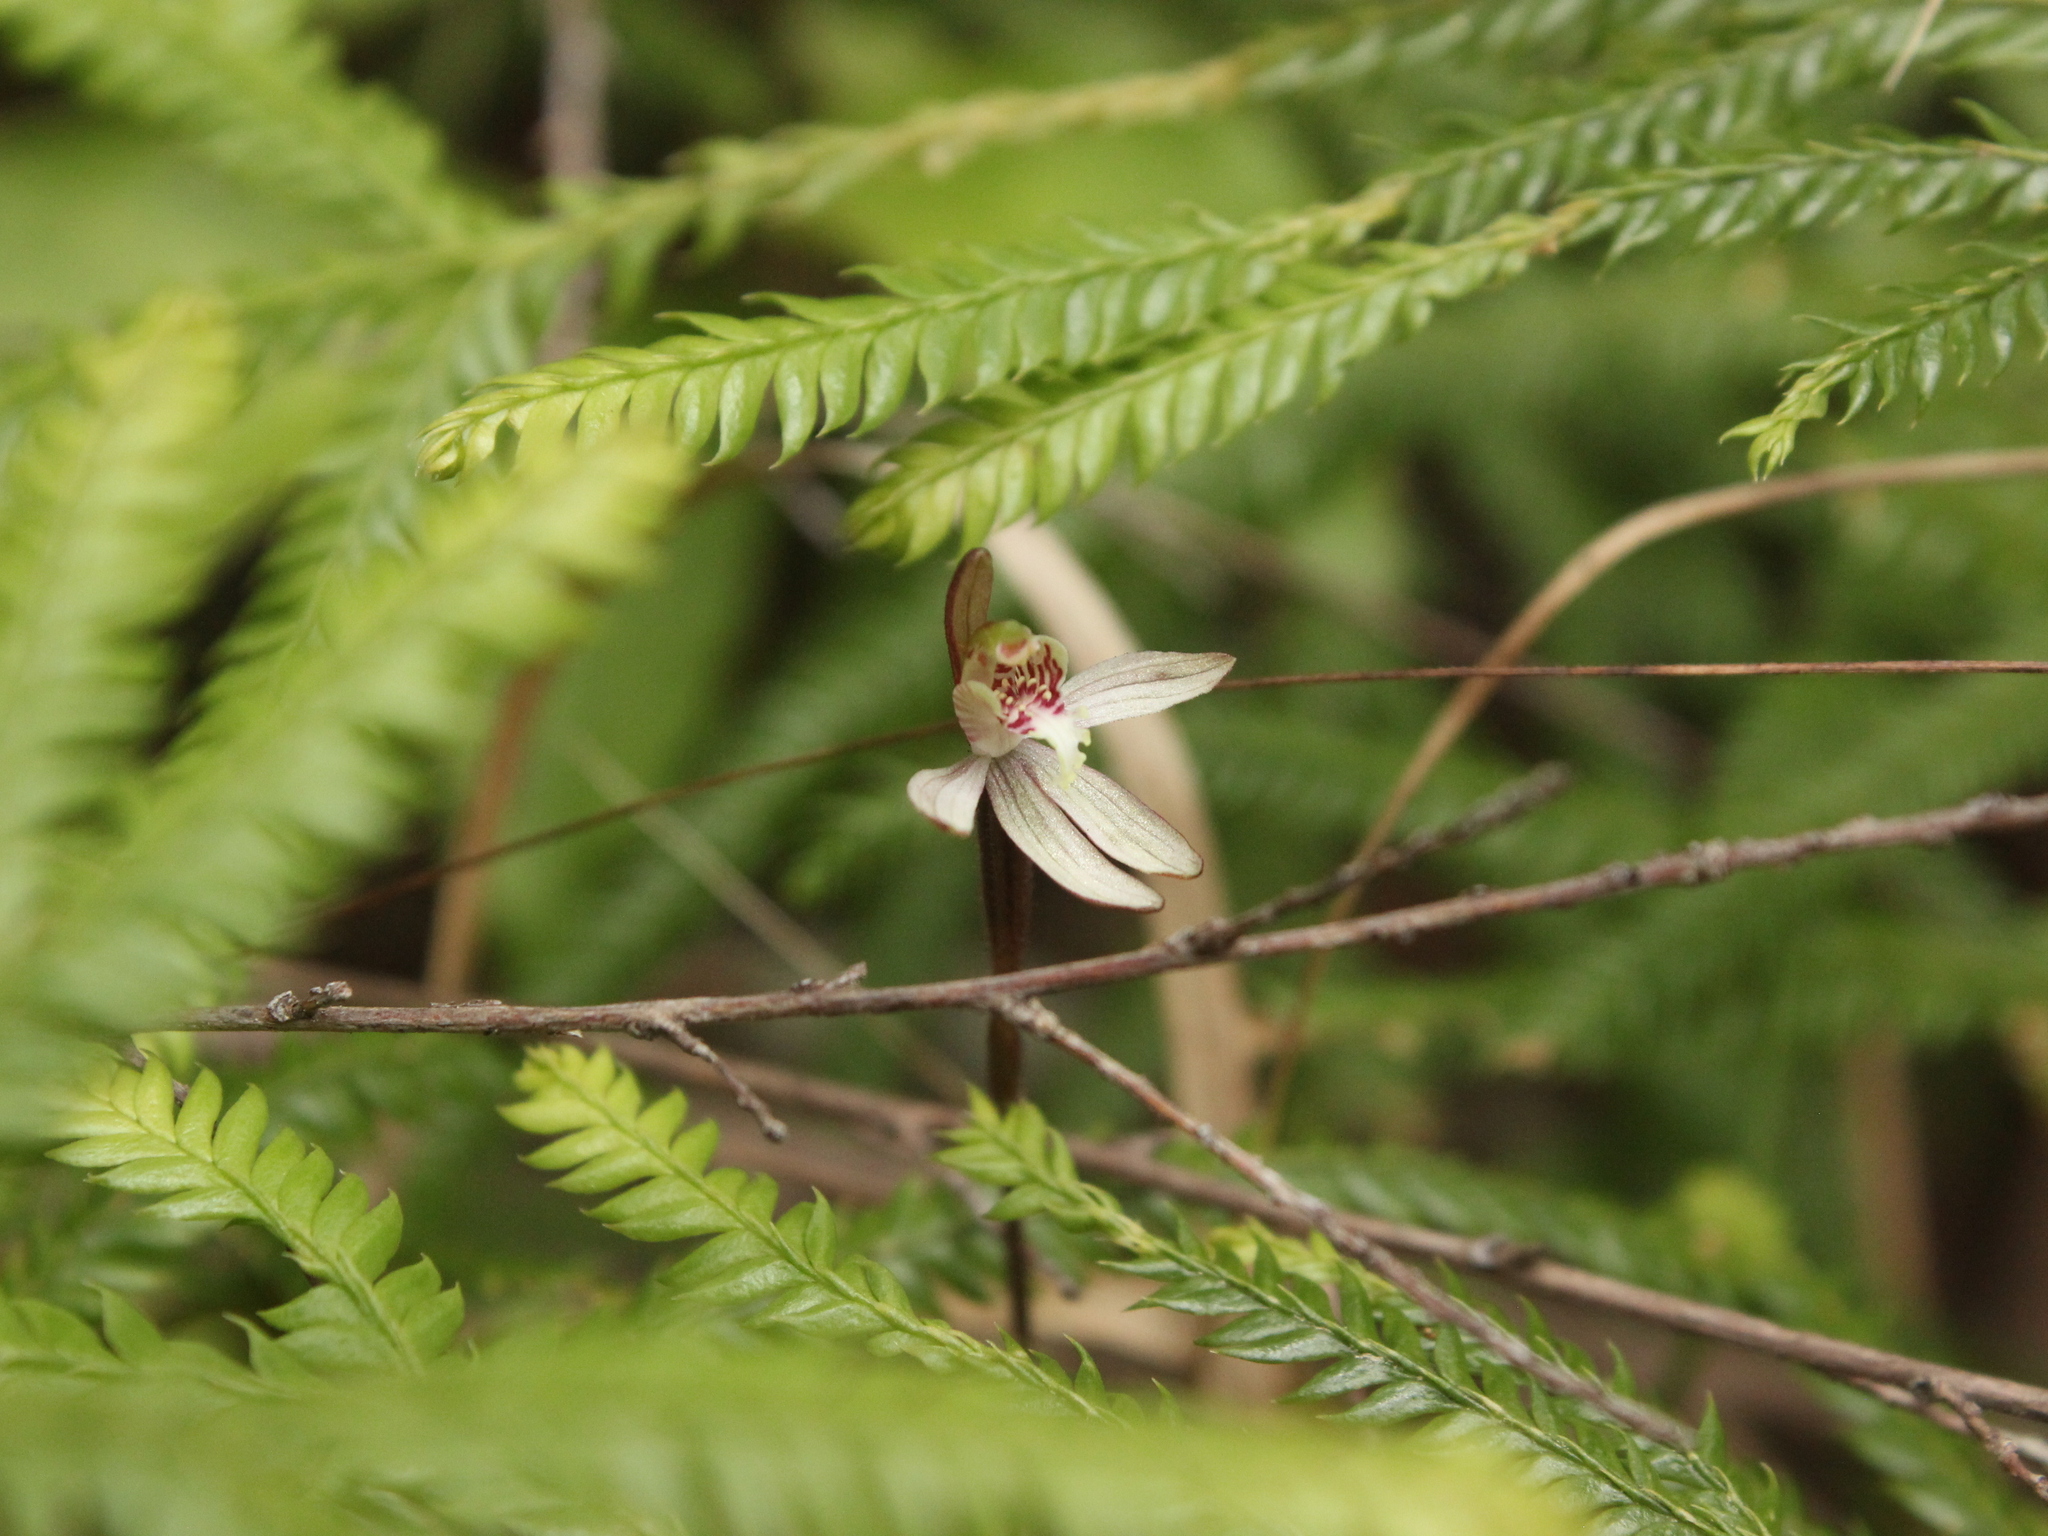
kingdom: Plantae
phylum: Tracheophyta
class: Liliopsida
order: Asparagales
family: Orchidaceae
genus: Caladenia
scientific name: Caladenia chlorostyla
